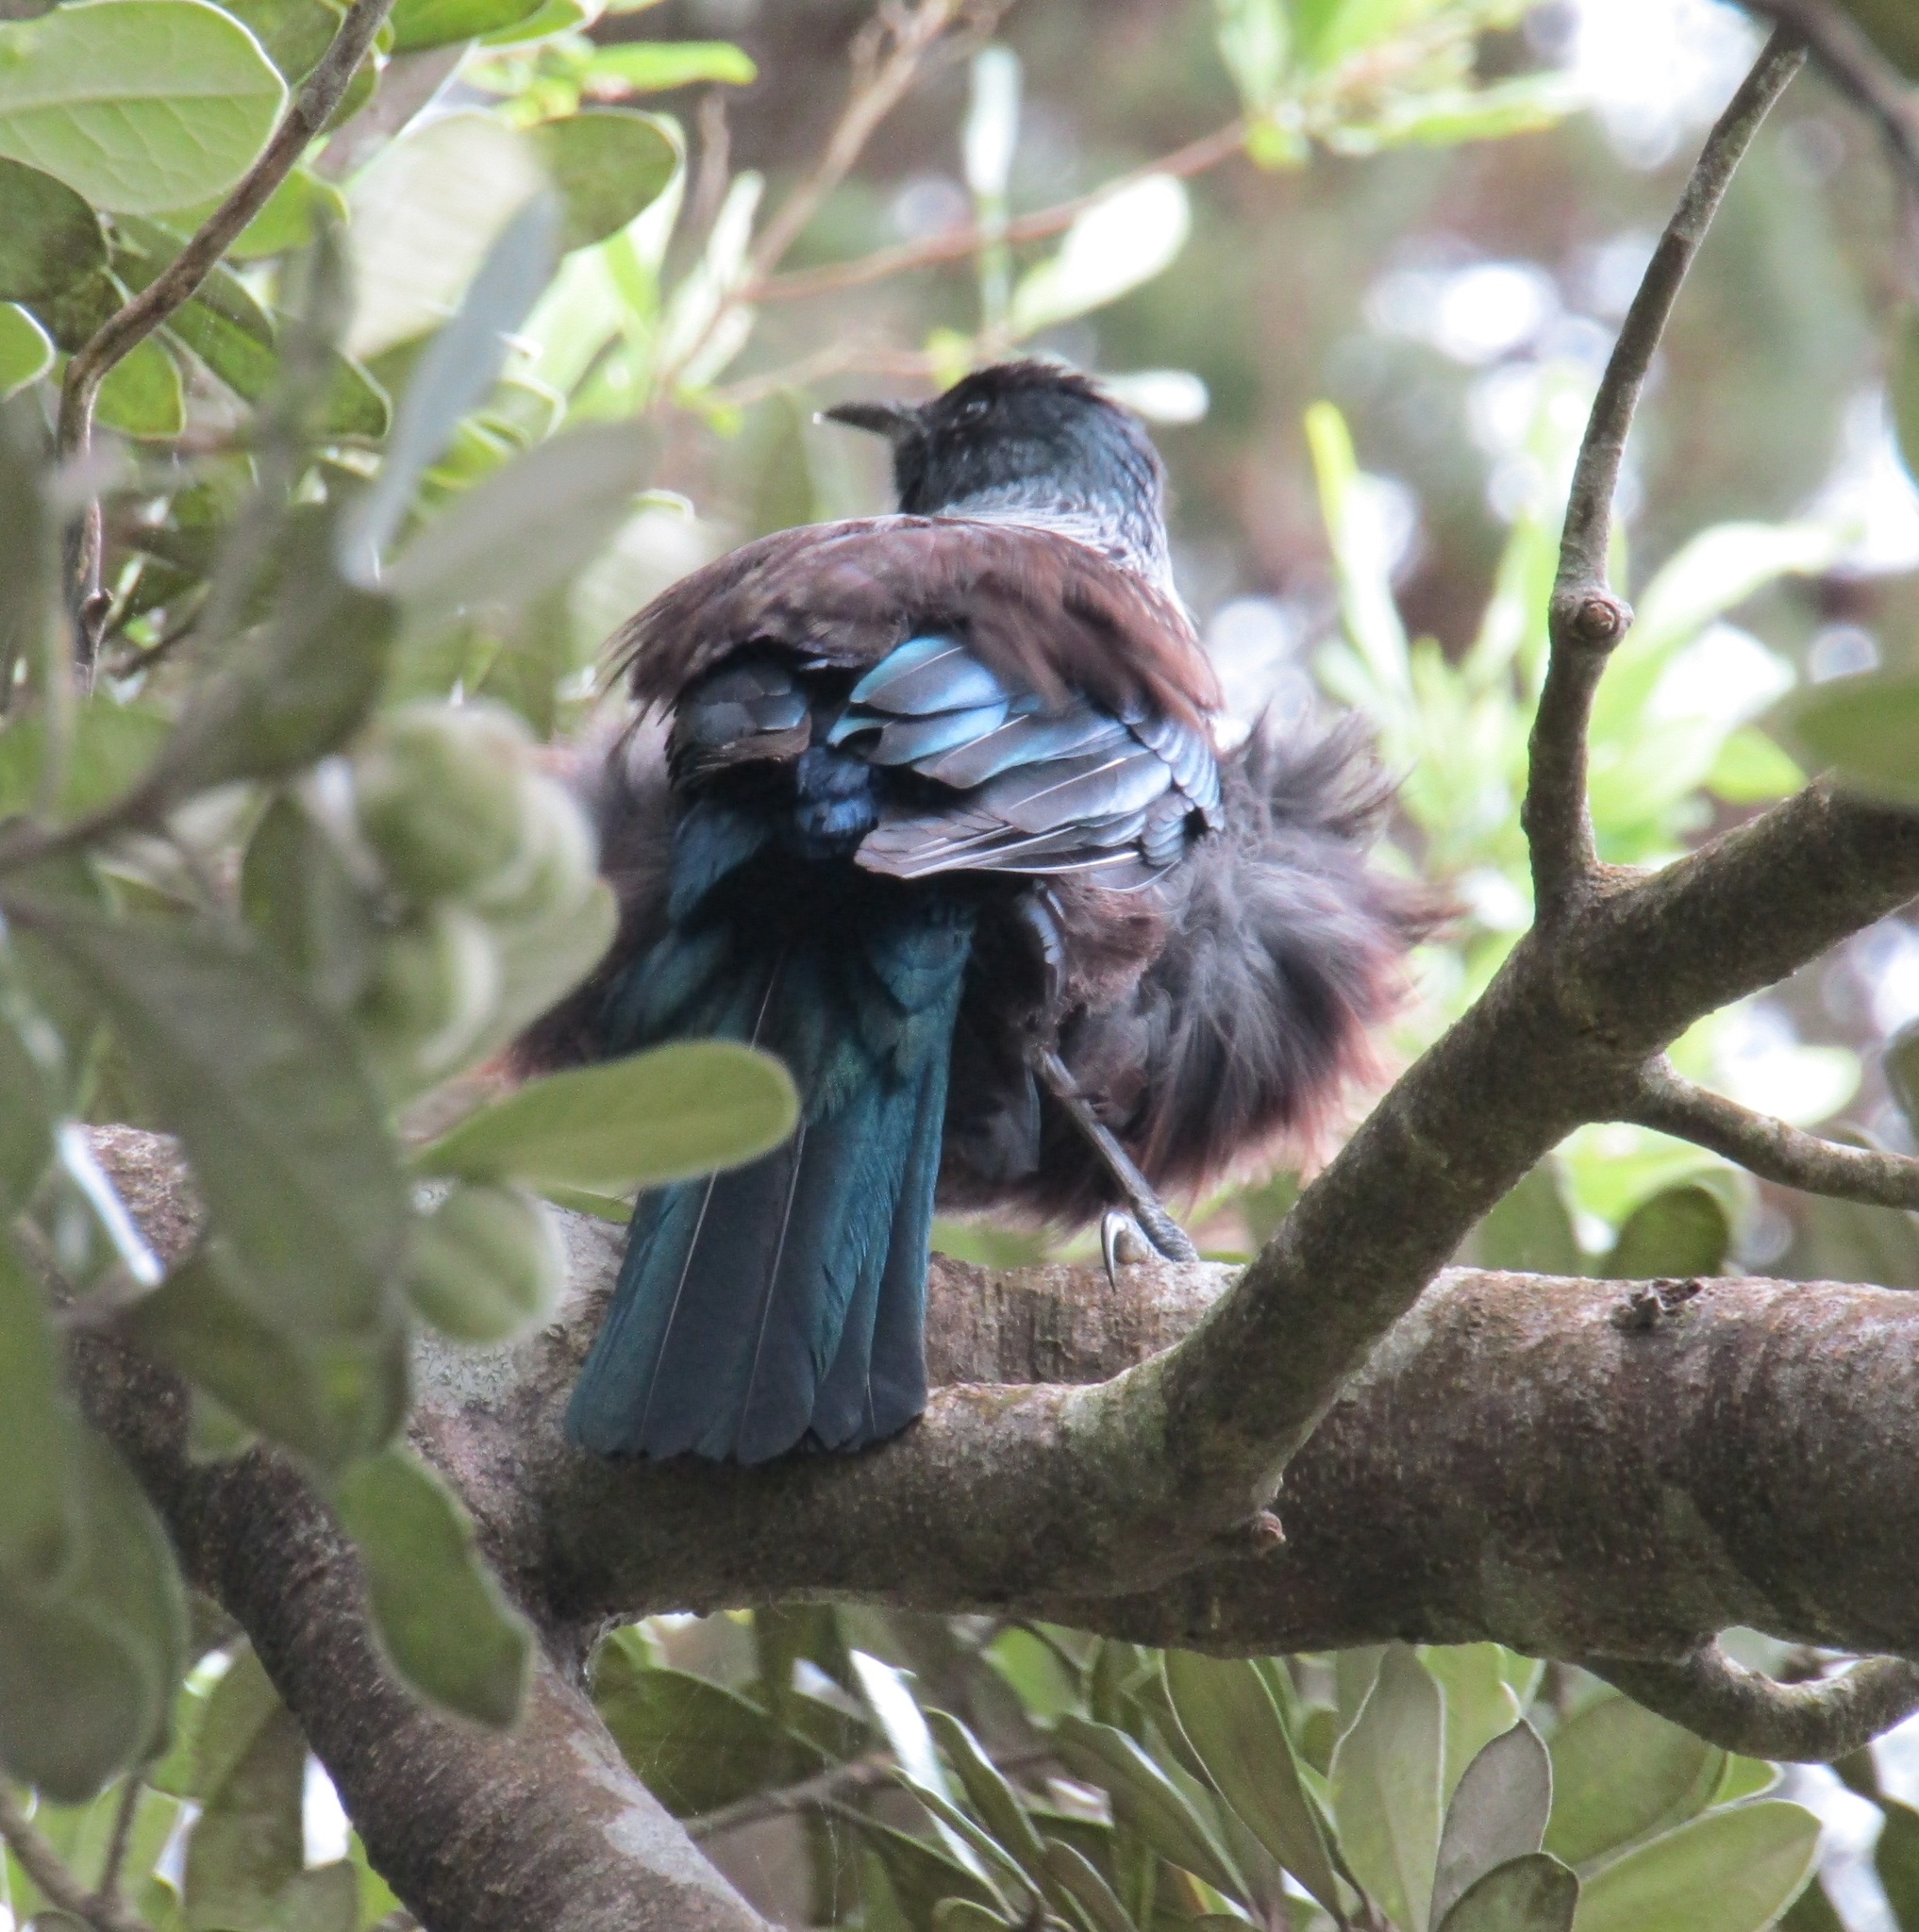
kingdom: Animalia
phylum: Chordata
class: Aves
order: Passeriformes
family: Meliphagidae
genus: Prosthemadera
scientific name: Prosthemadera novaeseelandiae
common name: Tui
